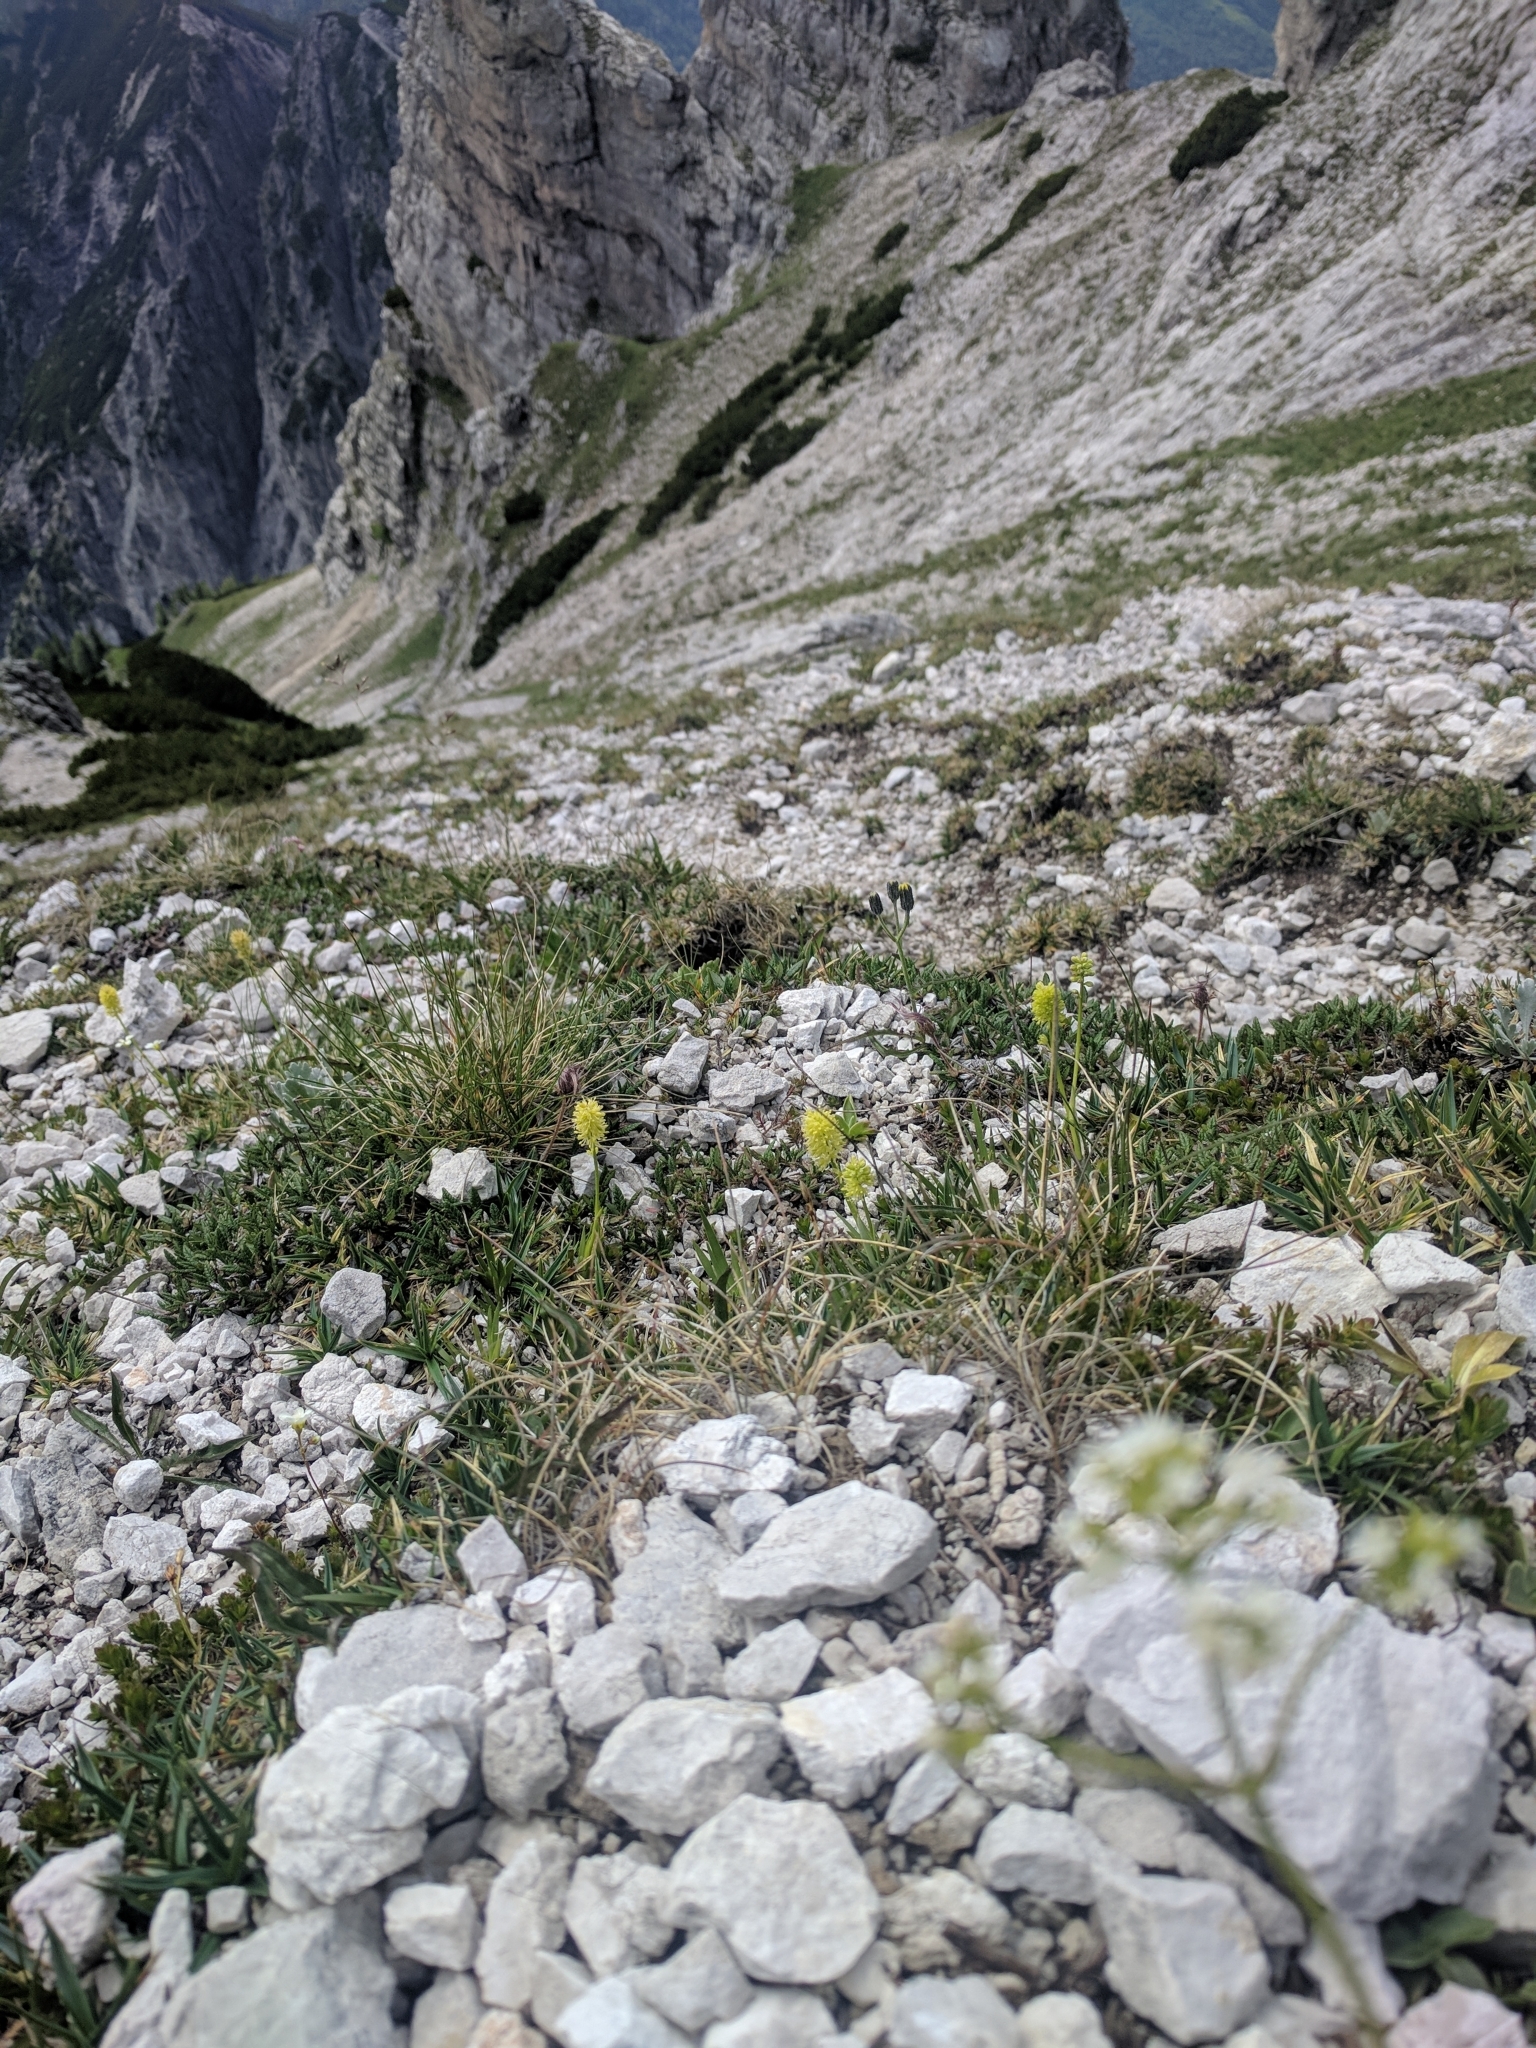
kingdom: Plantae
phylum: Tracheophyta
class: Liliopsida
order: Alismatales
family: Tofieldiaceae
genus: Tofieldia
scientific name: Tofieldia calyculata
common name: German-asphodel
